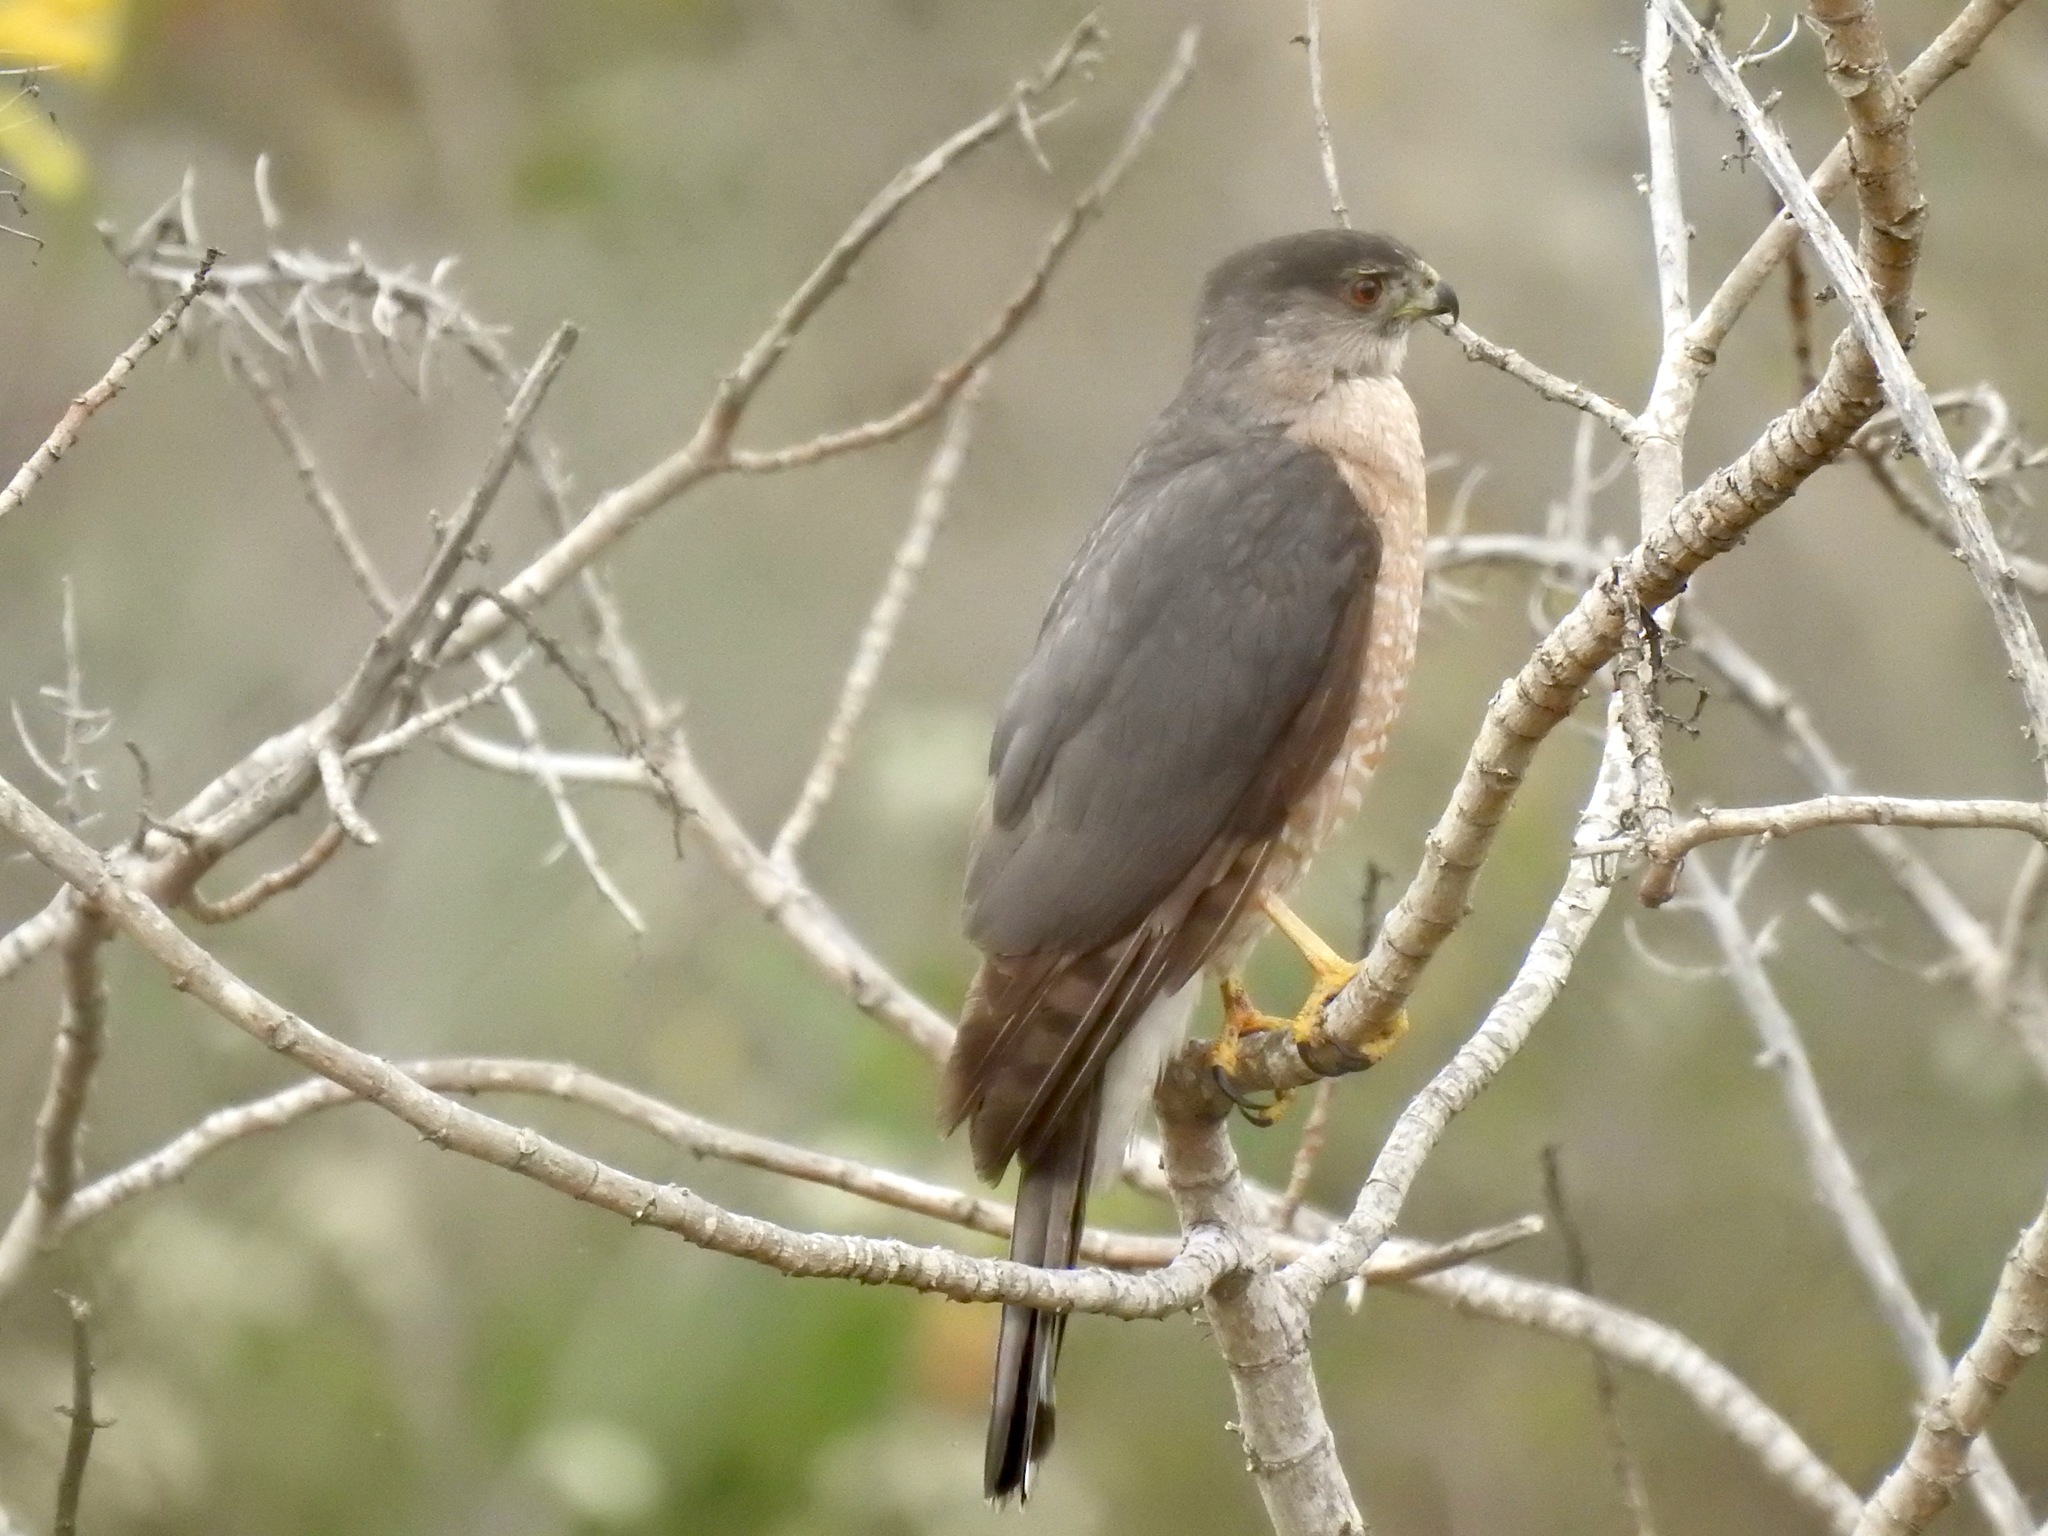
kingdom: Animalia
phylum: Chordata
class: Aves
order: Accipitriformes
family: Accipitridae
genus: Accipiter
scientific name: Accipiter cooperii
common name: Cooper's hawk
